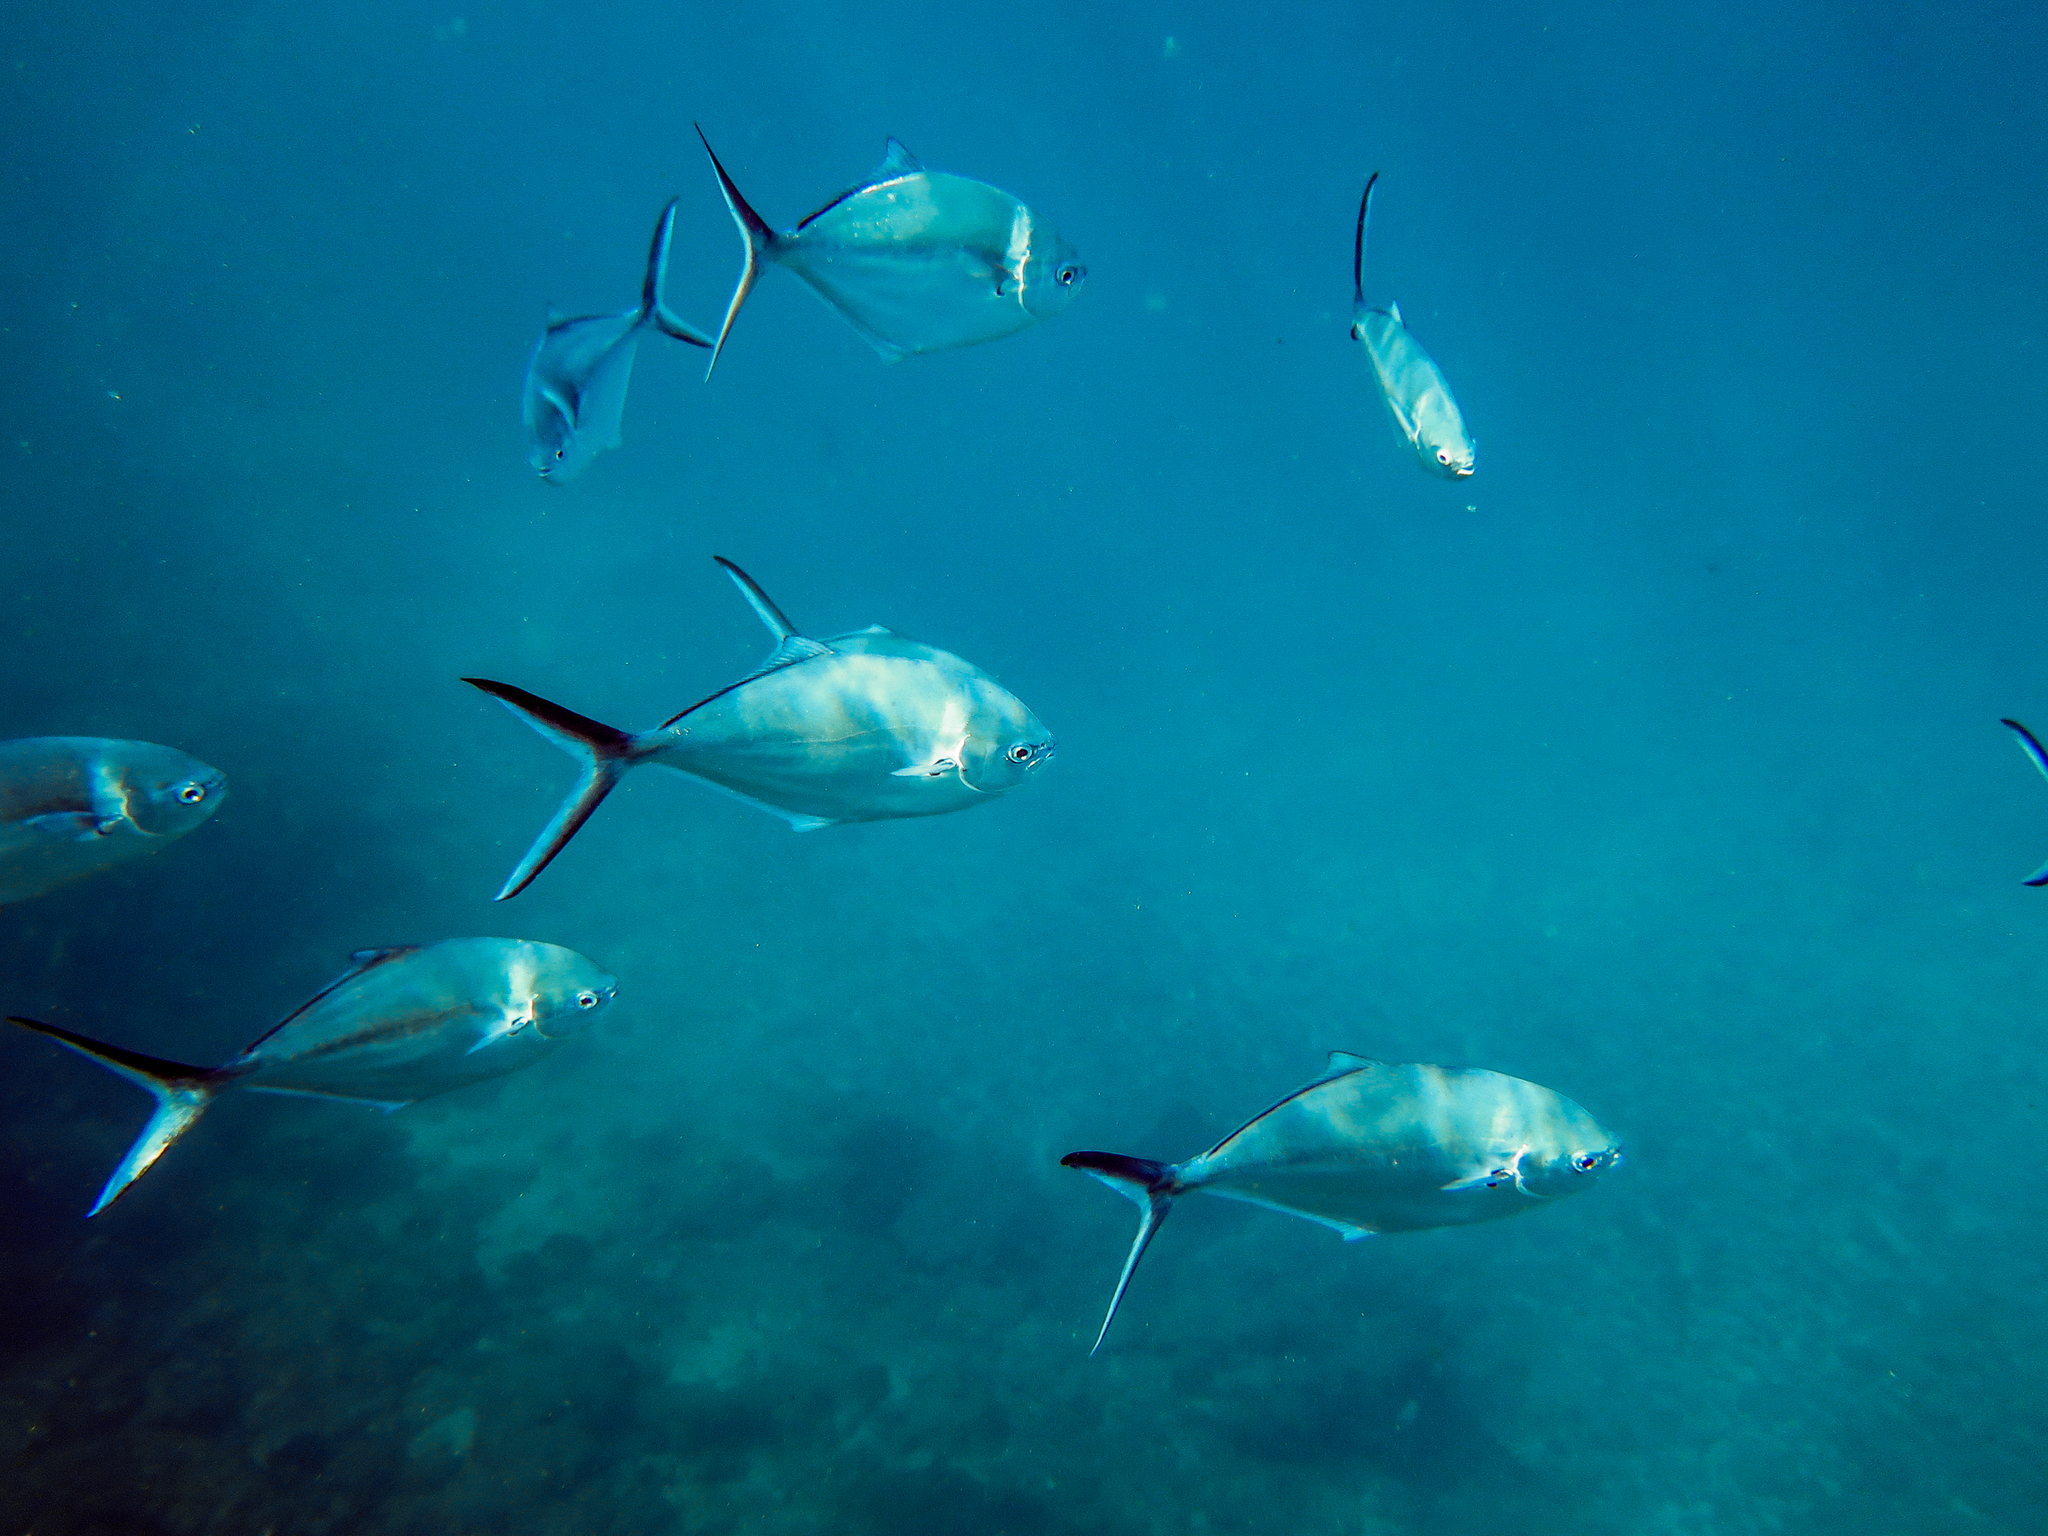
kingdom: Animalia
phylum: Chordata
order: Perciformes
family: Carangidae
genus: Trachinotus
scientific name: Trachinotus stilbe
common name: Steel pompano
